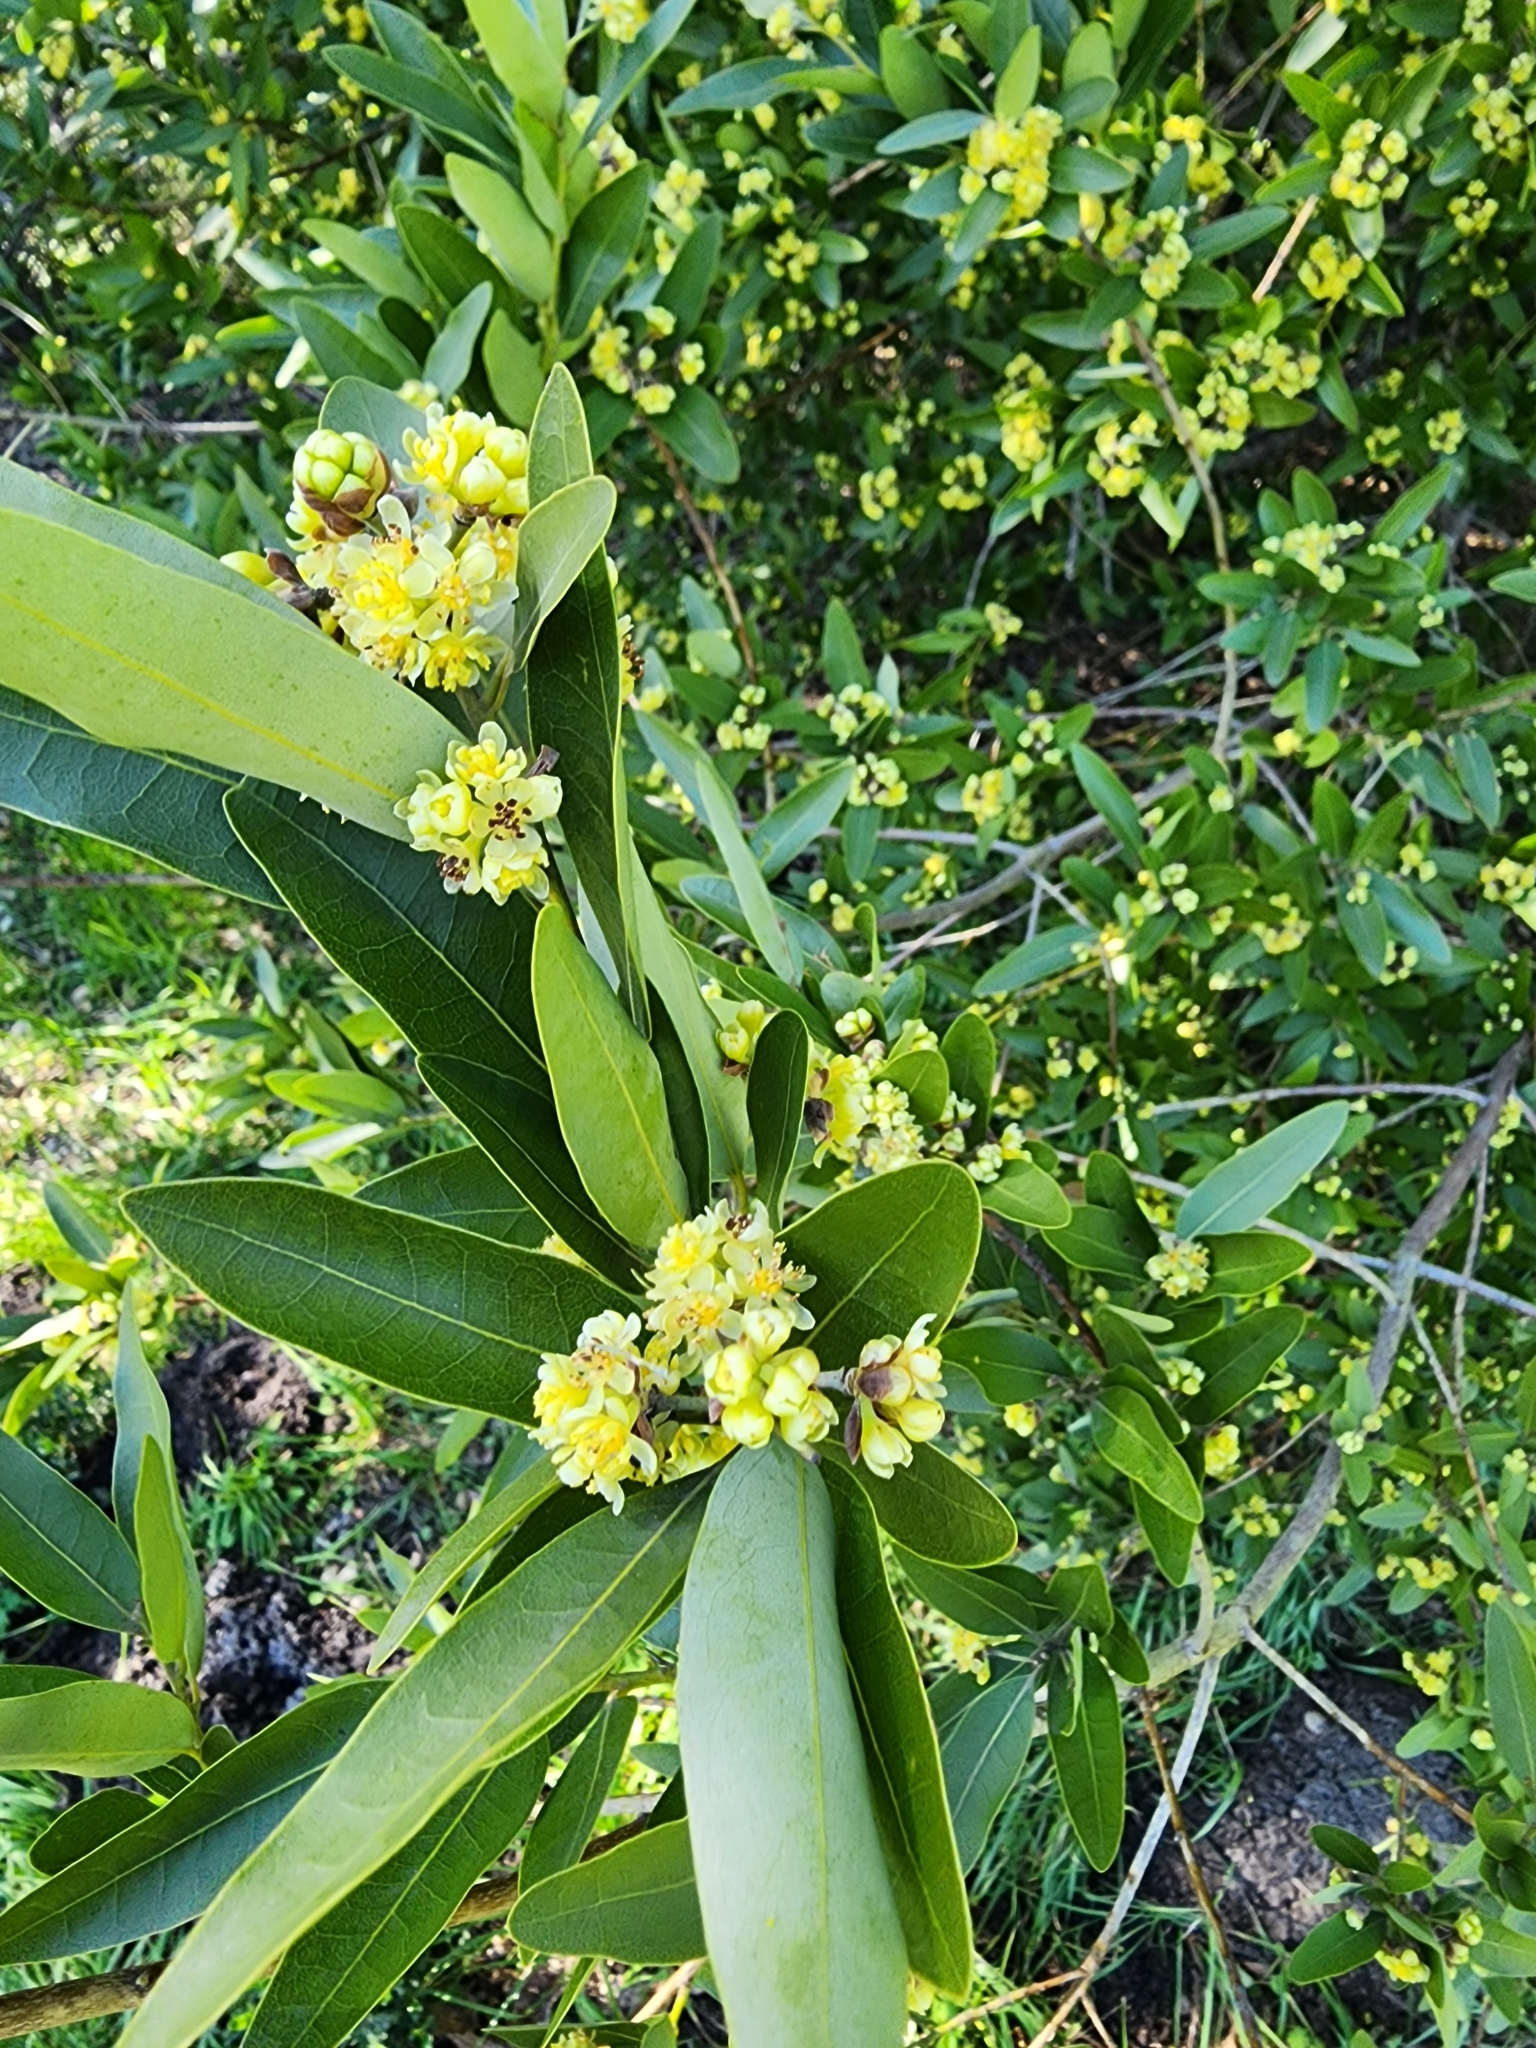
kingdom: Plantae
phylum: Tracheophyta
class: Magnoliopsida
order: Laurales
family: Lauraceae
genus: Umbellularia
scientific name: Umbellularia californica
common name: California bay
